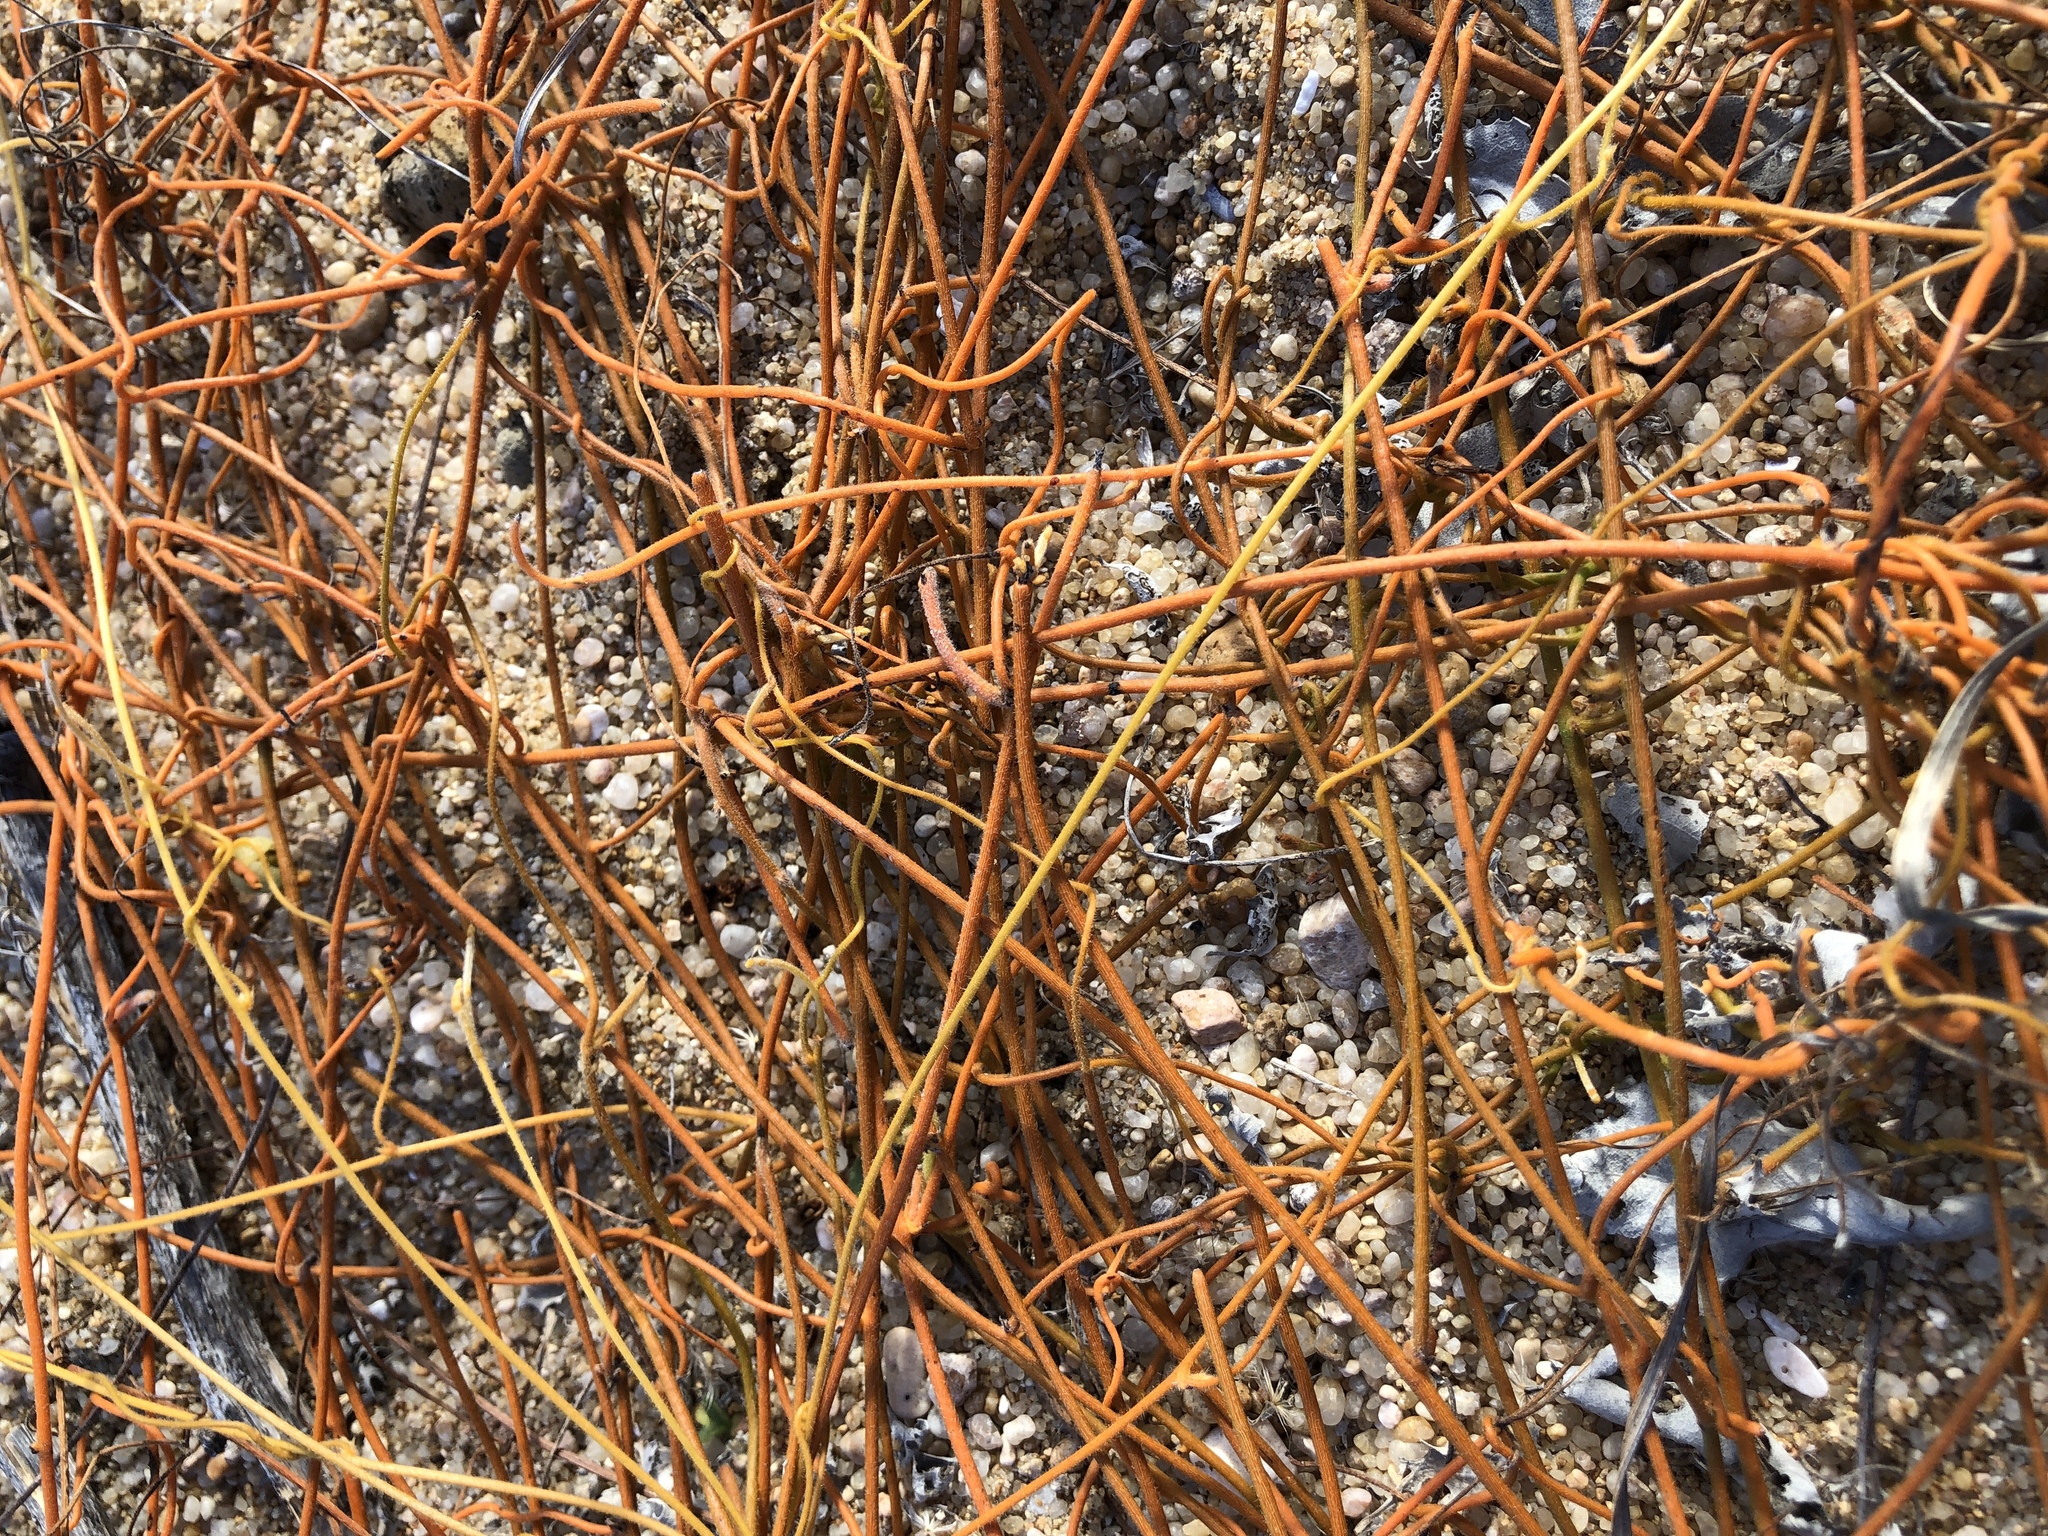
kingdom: Plantae
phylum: Tracheophyta
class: Magnoliopsida
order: Laurales
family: Lauraceae
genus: Cassytha
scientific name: Cassytha filiformis
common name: Dodder-laurel
